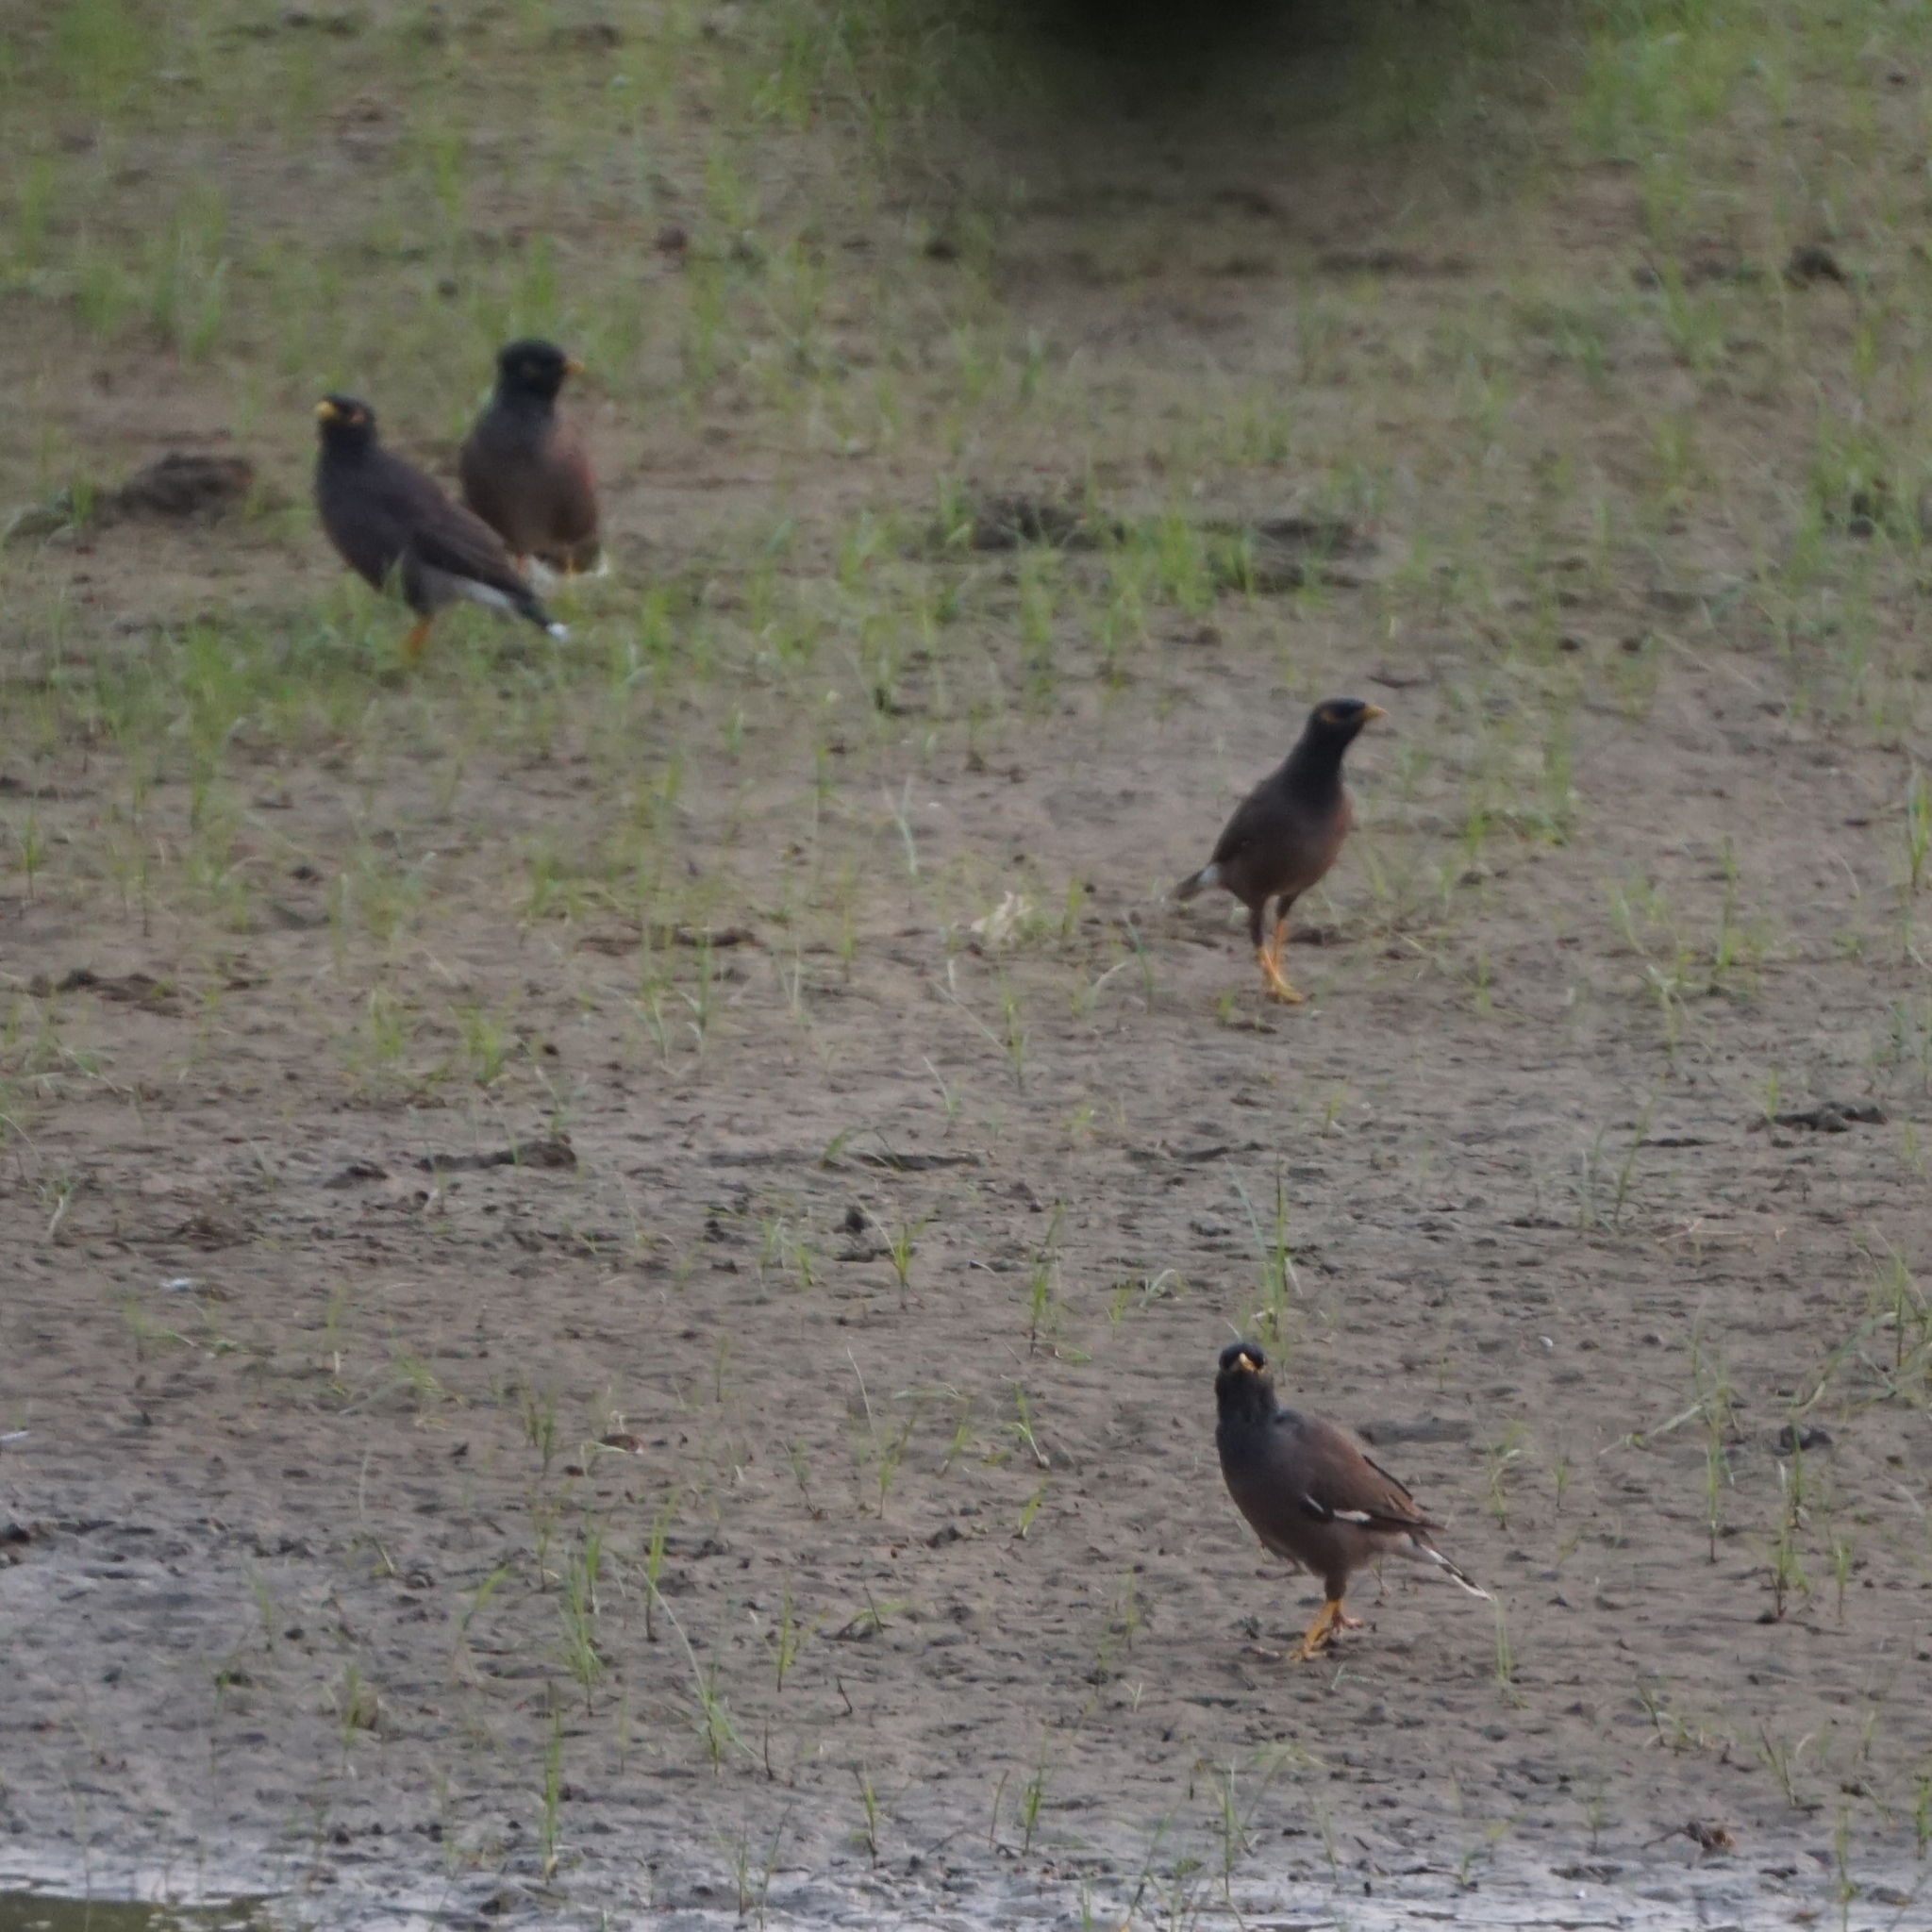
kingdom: Animalia
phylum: Chordata
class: Aves
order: Passeriformes
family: Sturnidae
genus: Acridotheres
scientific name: Acridotheres tristis
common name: Common myna
